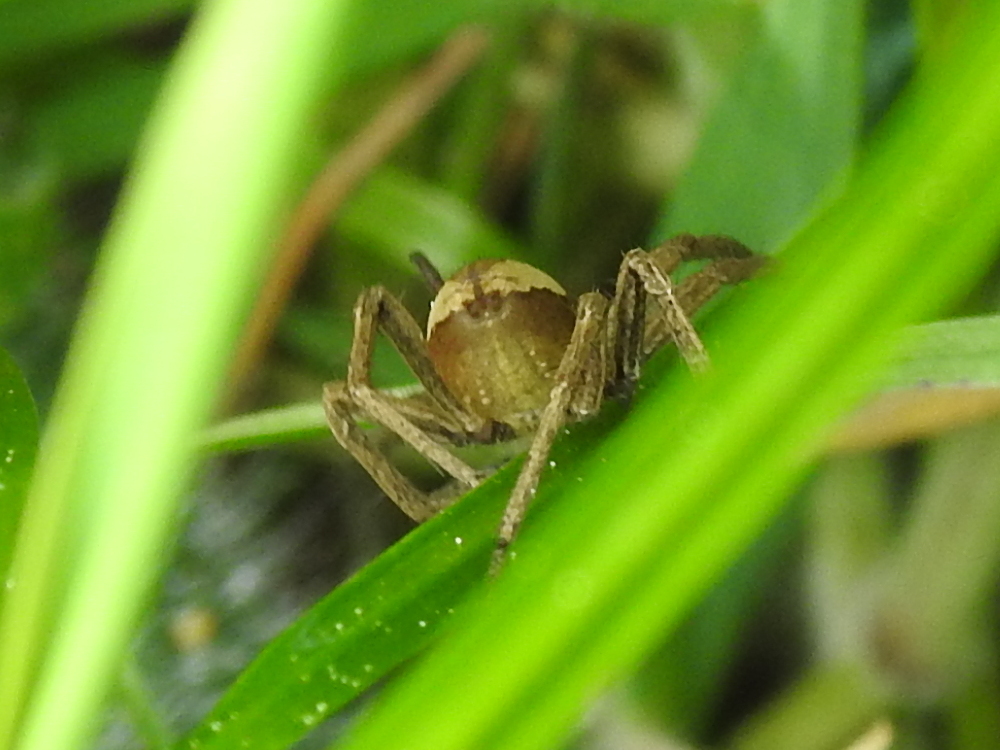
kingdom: Animalia
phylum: Arthropoda
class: Arachnida
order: Araneae
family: Pisauridae
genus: Pisaura
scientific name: Pisaura mirabilis
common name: Tent spider
